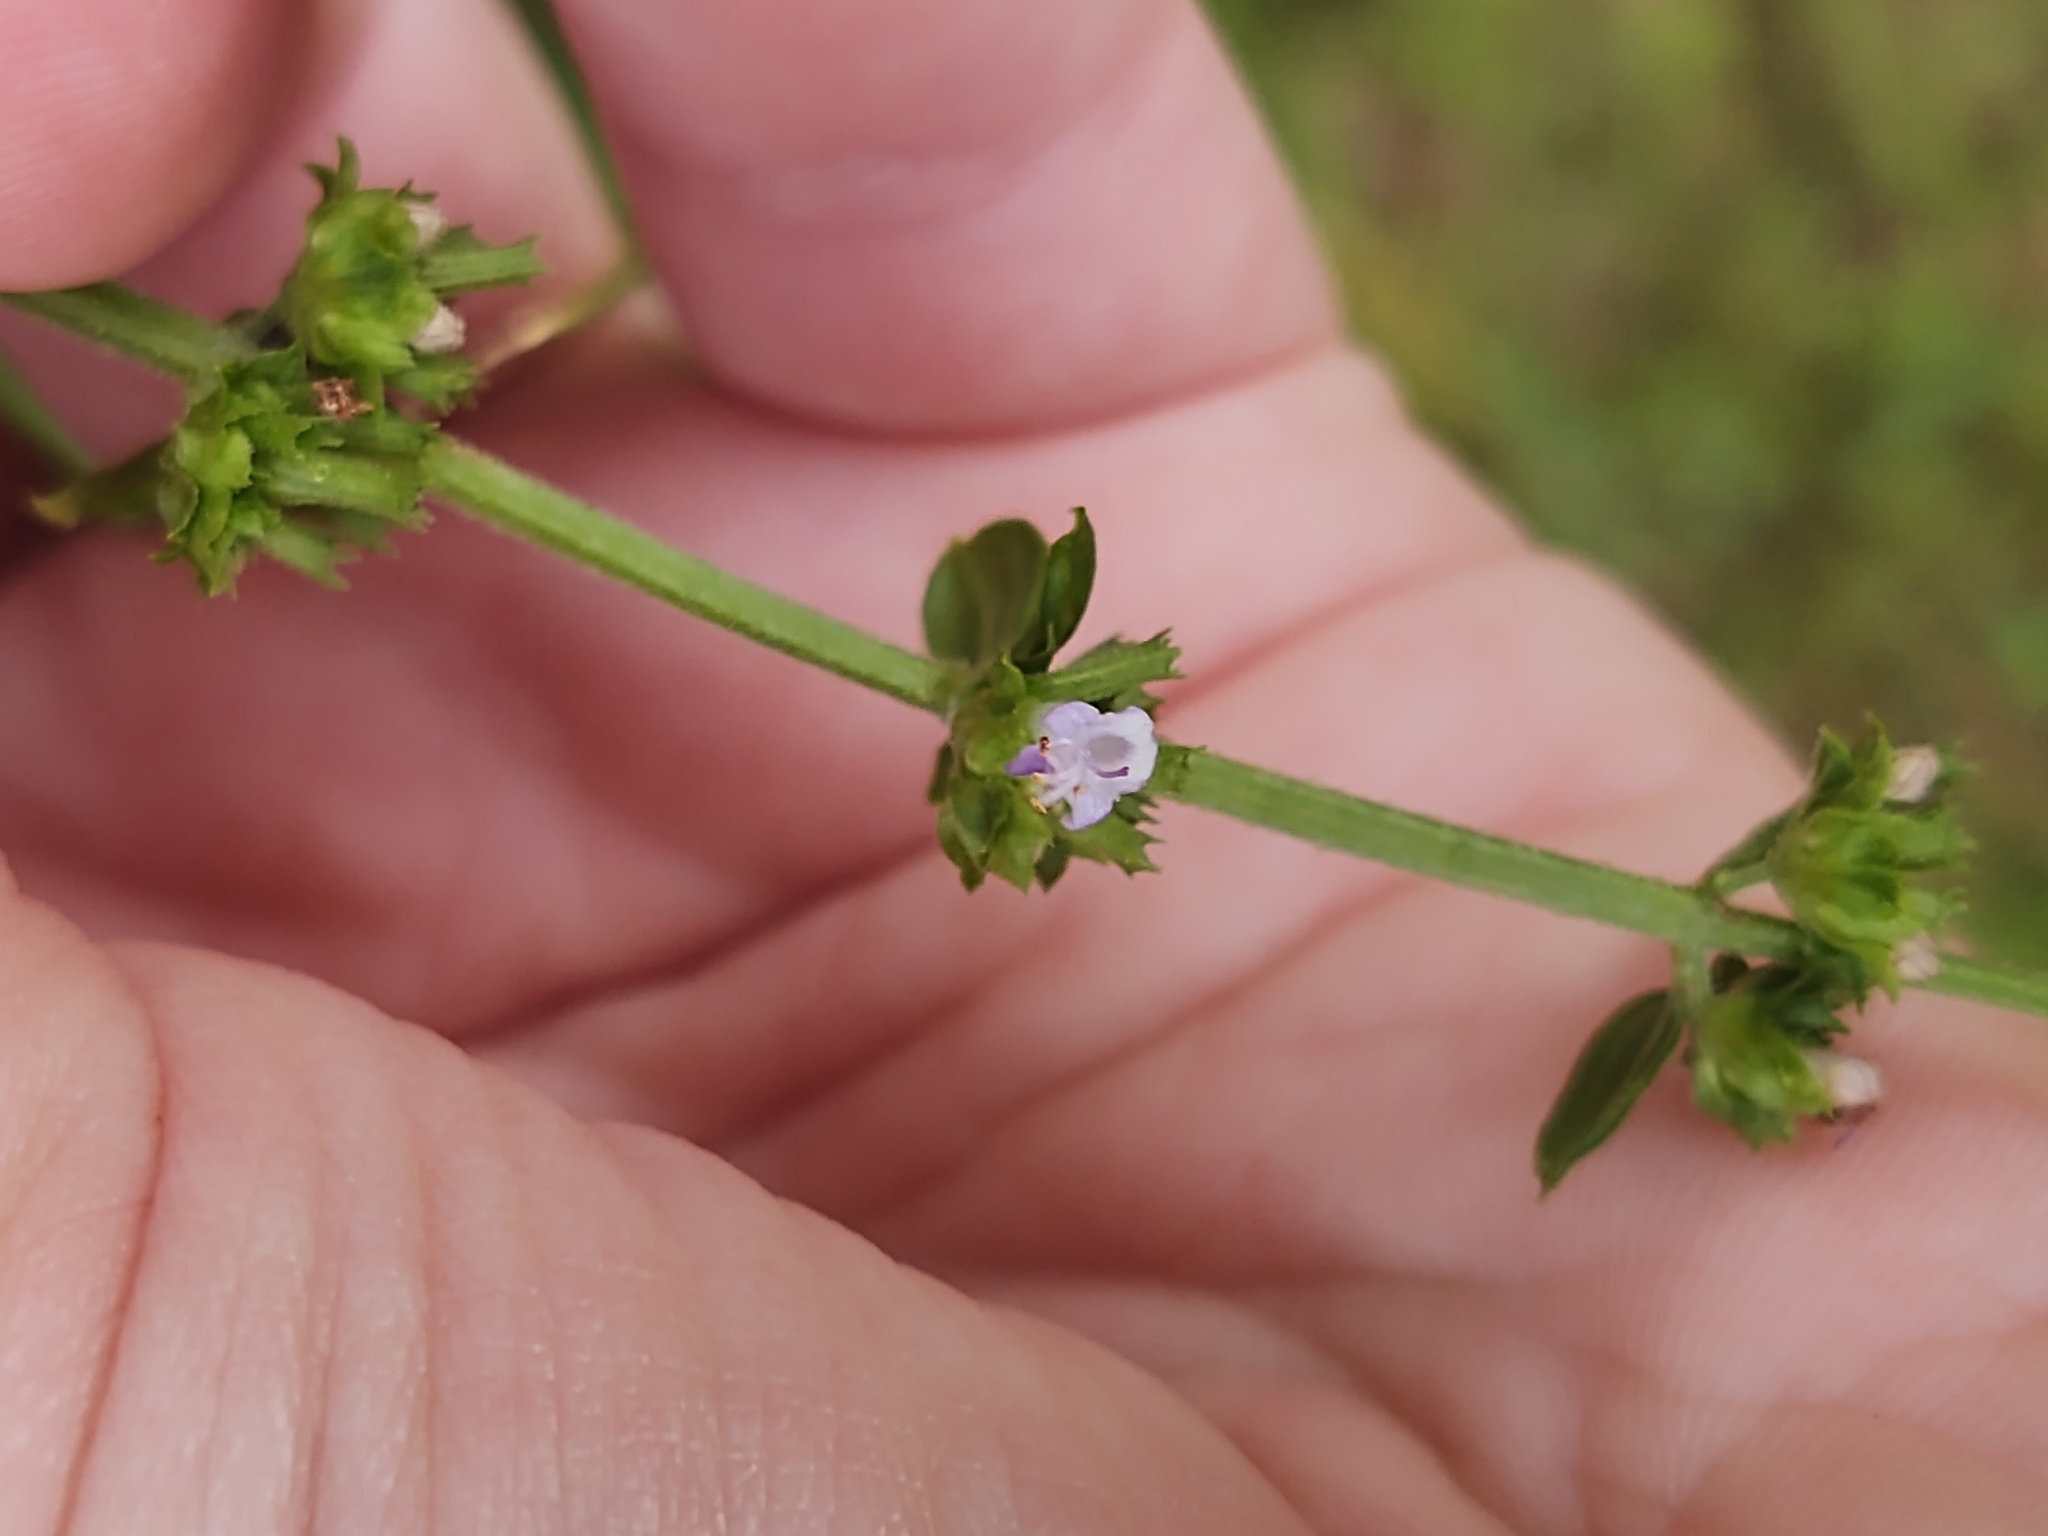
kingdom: Plantae
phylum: Tracheophyta
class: Magnoliopsida
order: Lamiales
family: Lamiaceae
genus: Cantinoa
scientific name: Cantinoa mutabilis
